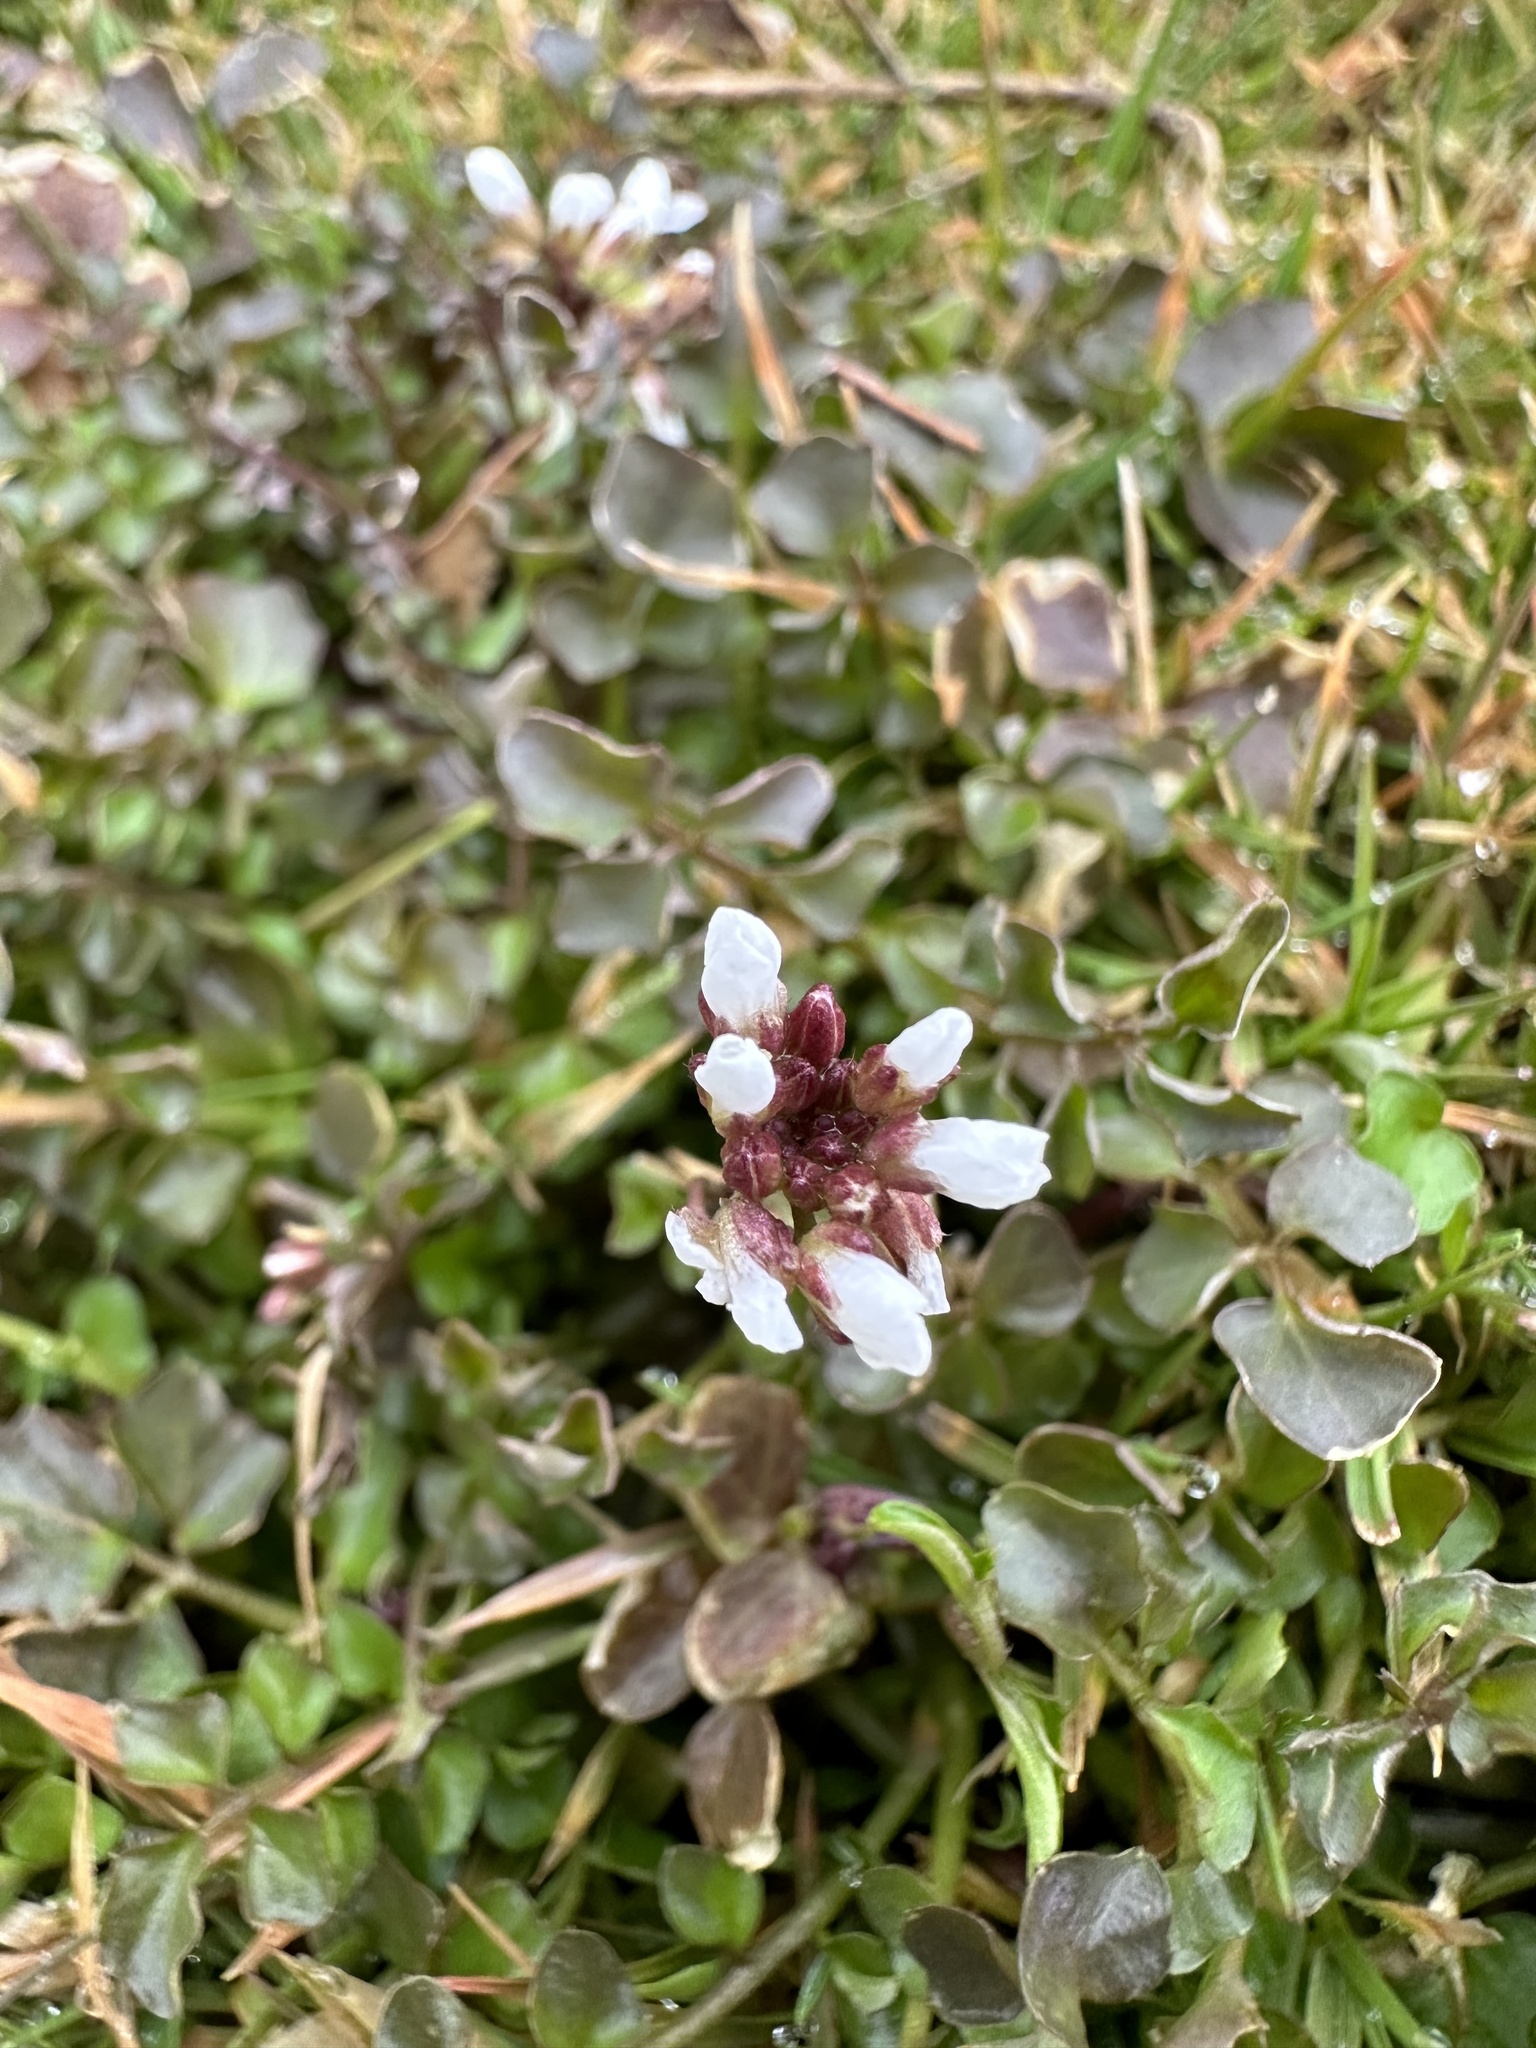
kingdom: Plantae
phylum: Tracheophyta
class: Magnoliopsida
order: Brassicales
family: Brassicaceae
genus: Cardamine
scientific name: Cardamine hirsuta
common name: Hairy bittercress
